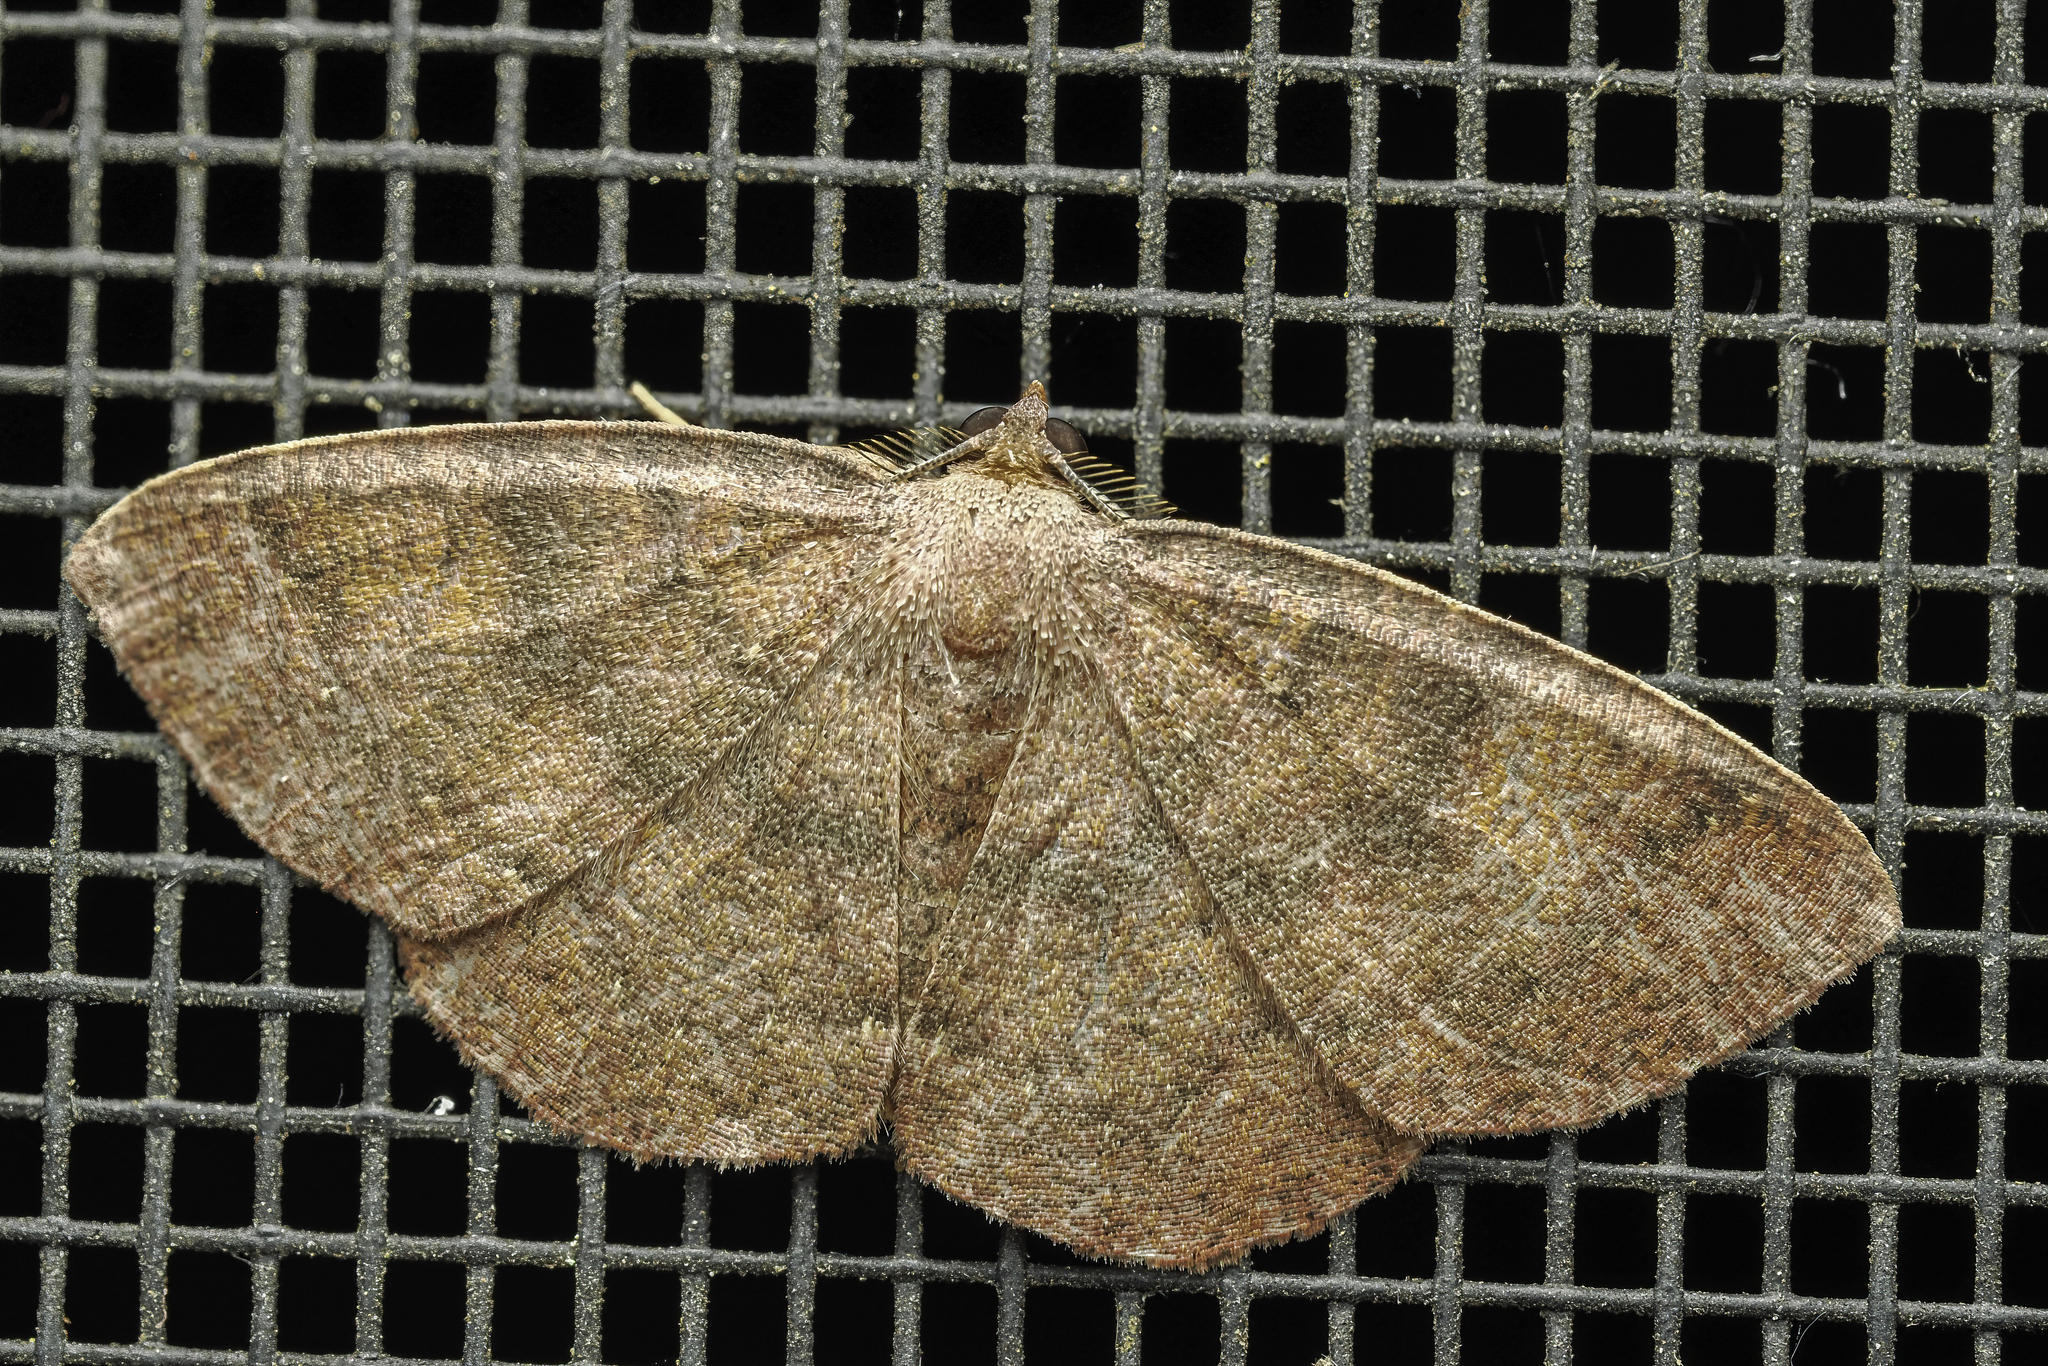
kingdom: Animalia
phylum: Arthropoda
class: Insecta
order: Lepidoptera
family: Geometridae
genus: Ilexia
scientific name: Ilexia intractata
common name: Black-dotted ruddy moth
